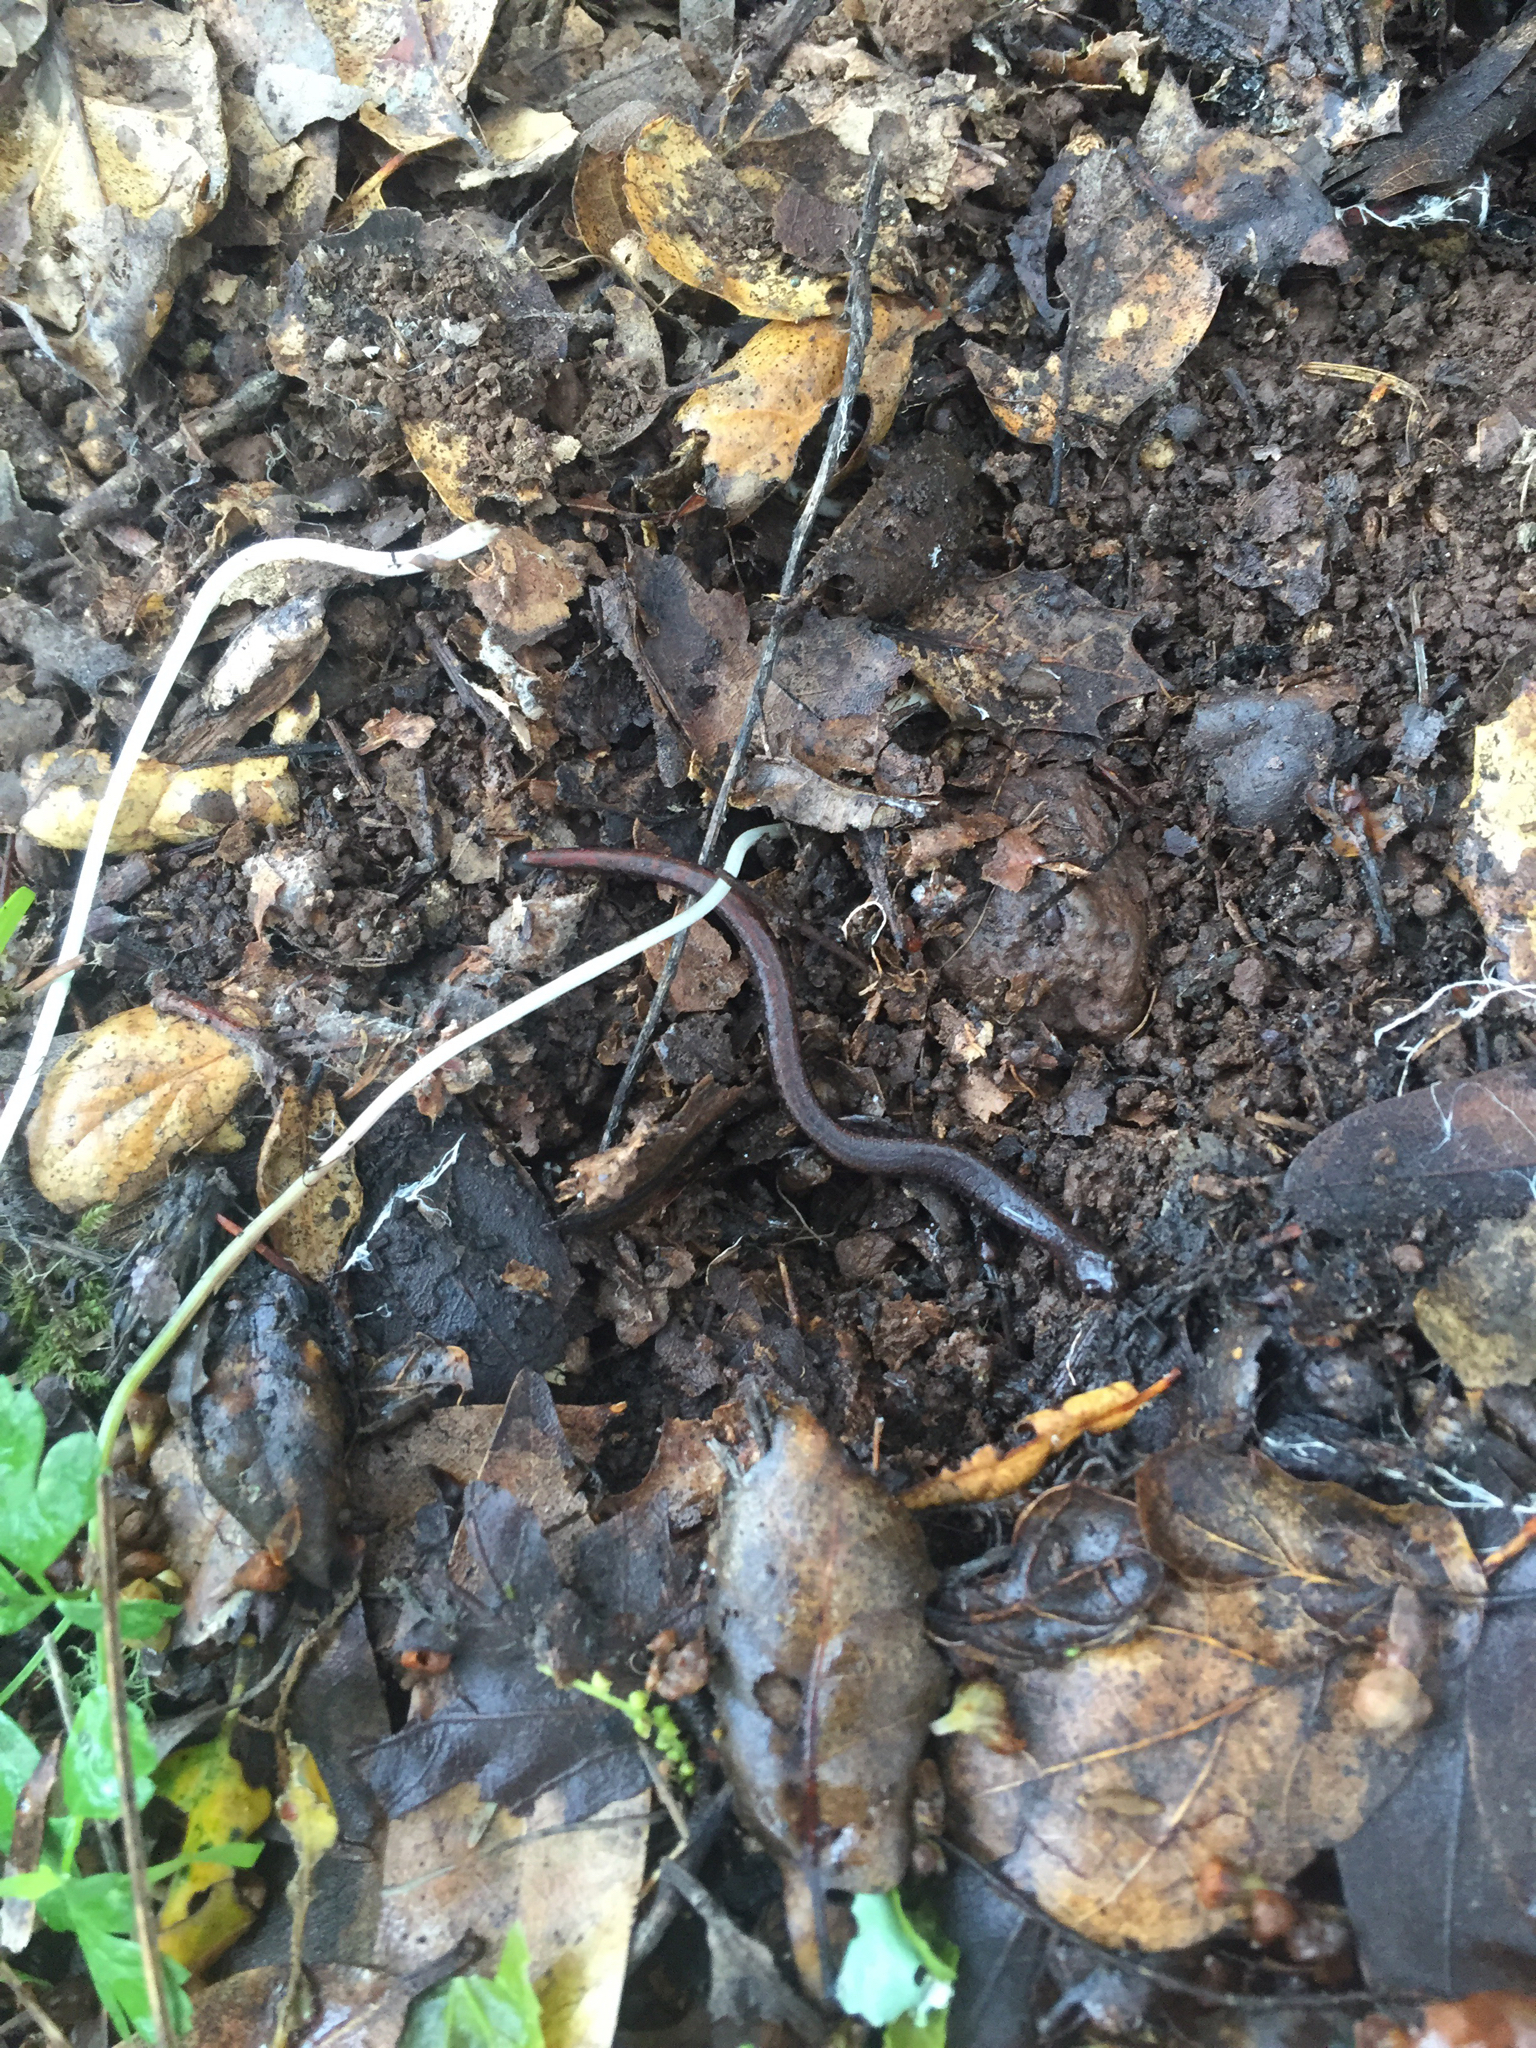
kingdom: Animalia
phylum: Chordata
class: Amphibia
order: Caudata
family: Plethodontidae
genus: Batrachoseps
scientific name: Batrachoseps attenuatus
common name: California slender salamander
